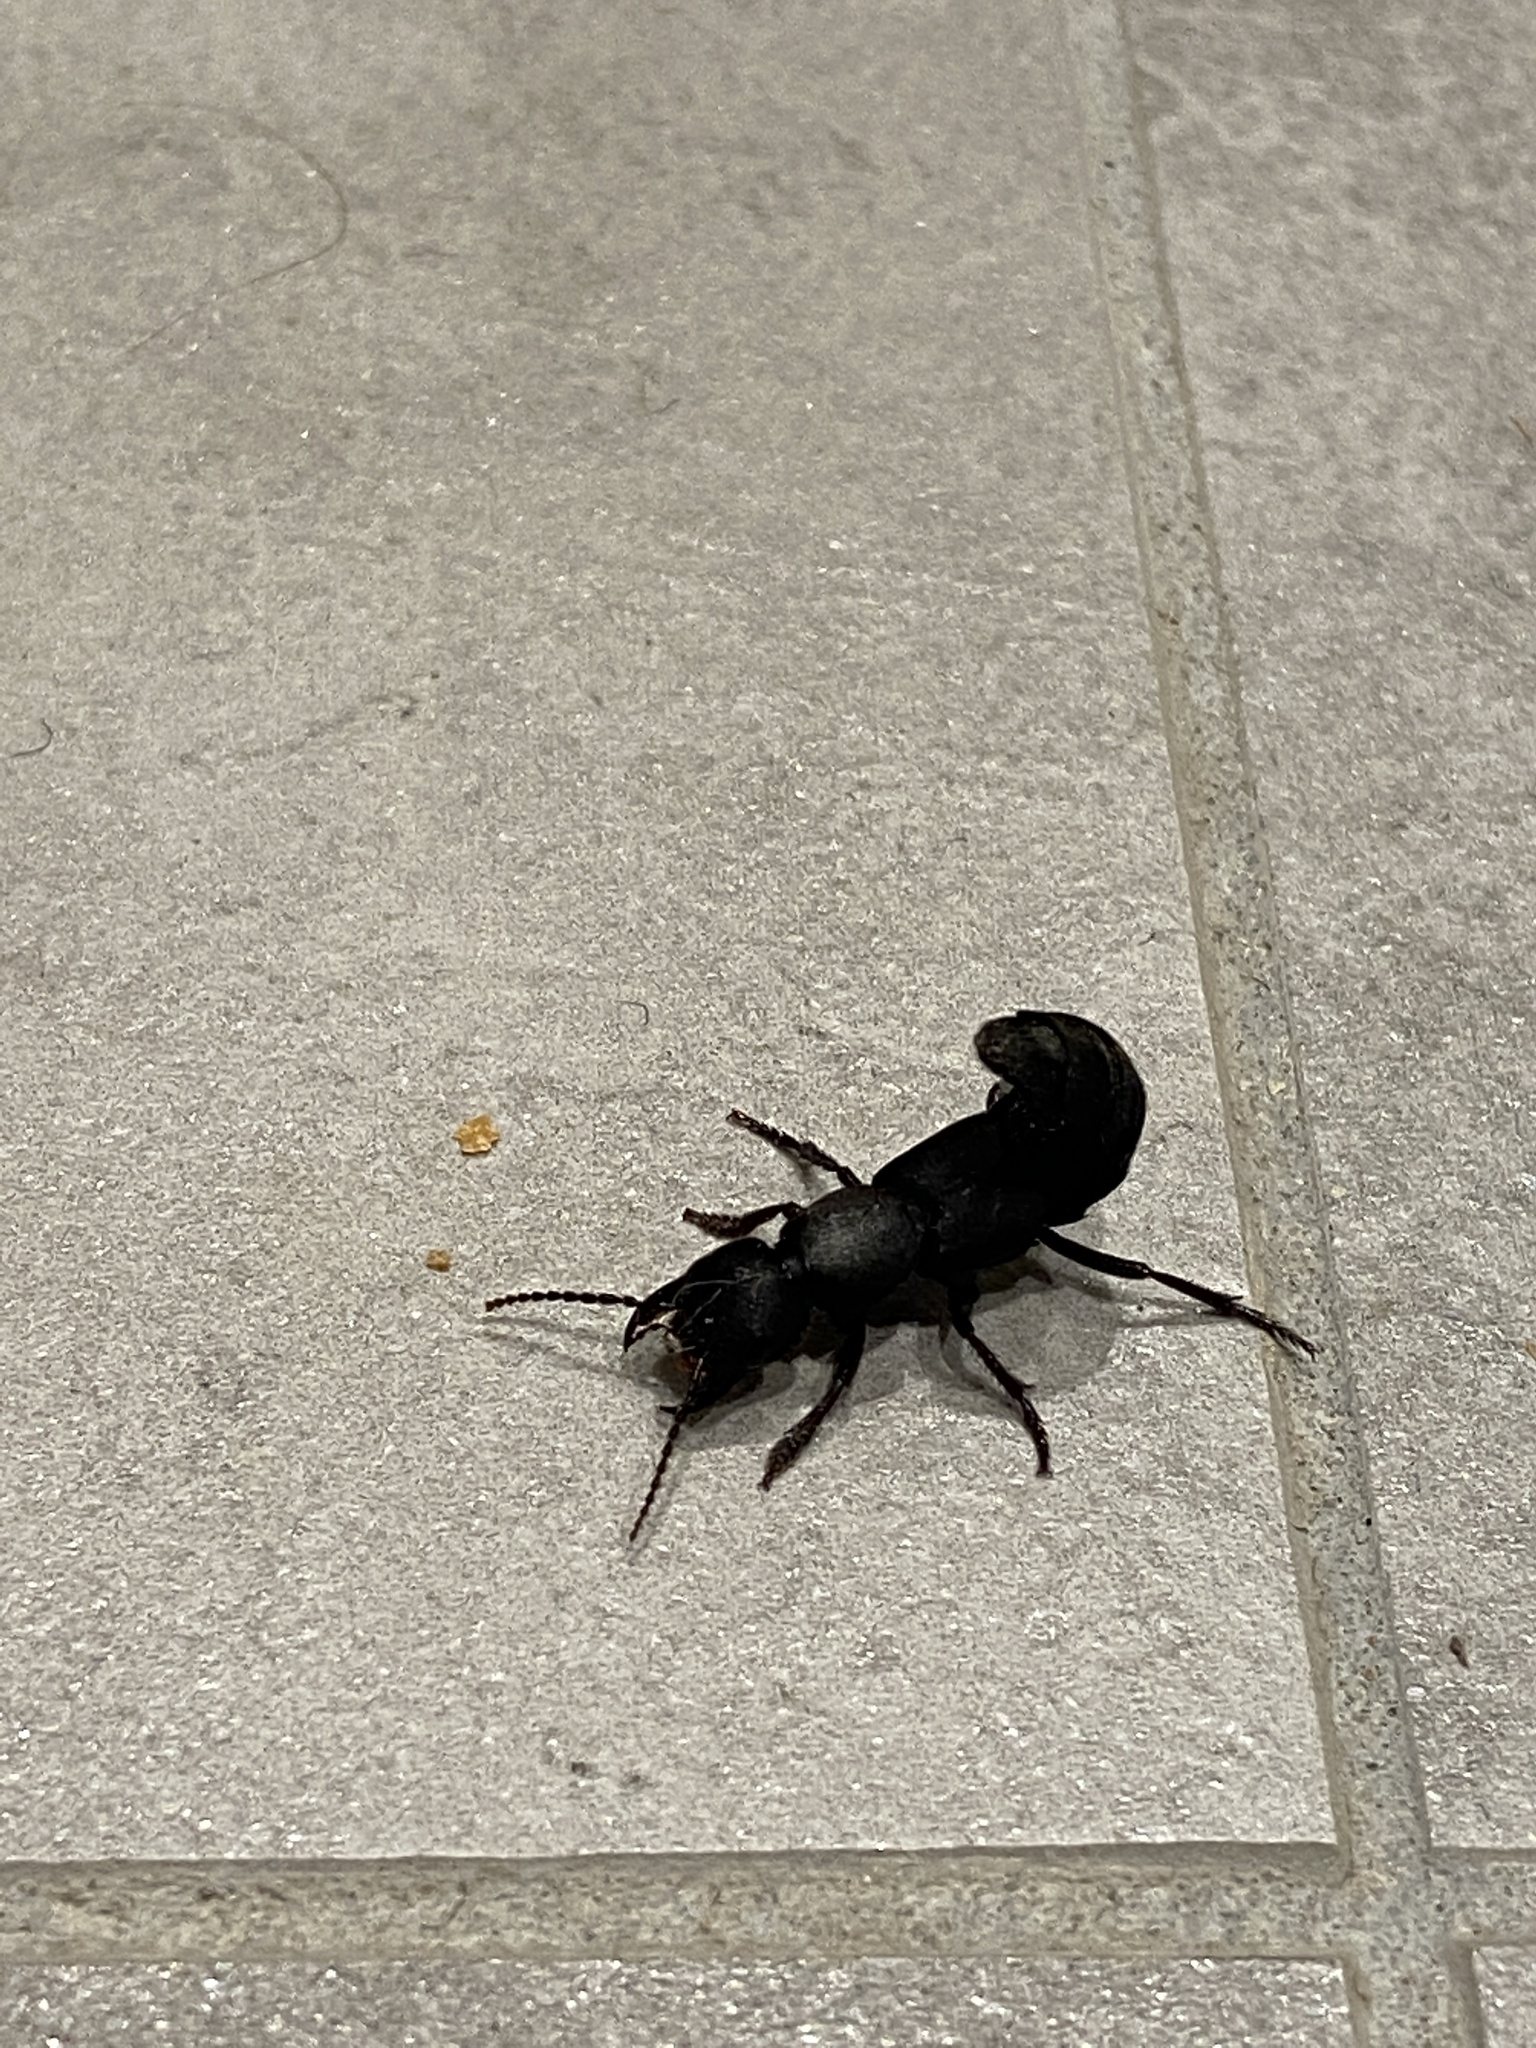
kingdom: Animalia
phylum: Arthropoda
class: Insecta
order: Coleoptera
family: Staphylinidae
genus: Ocypus
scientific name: Ocypus olens
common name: Devil's coach-horse
